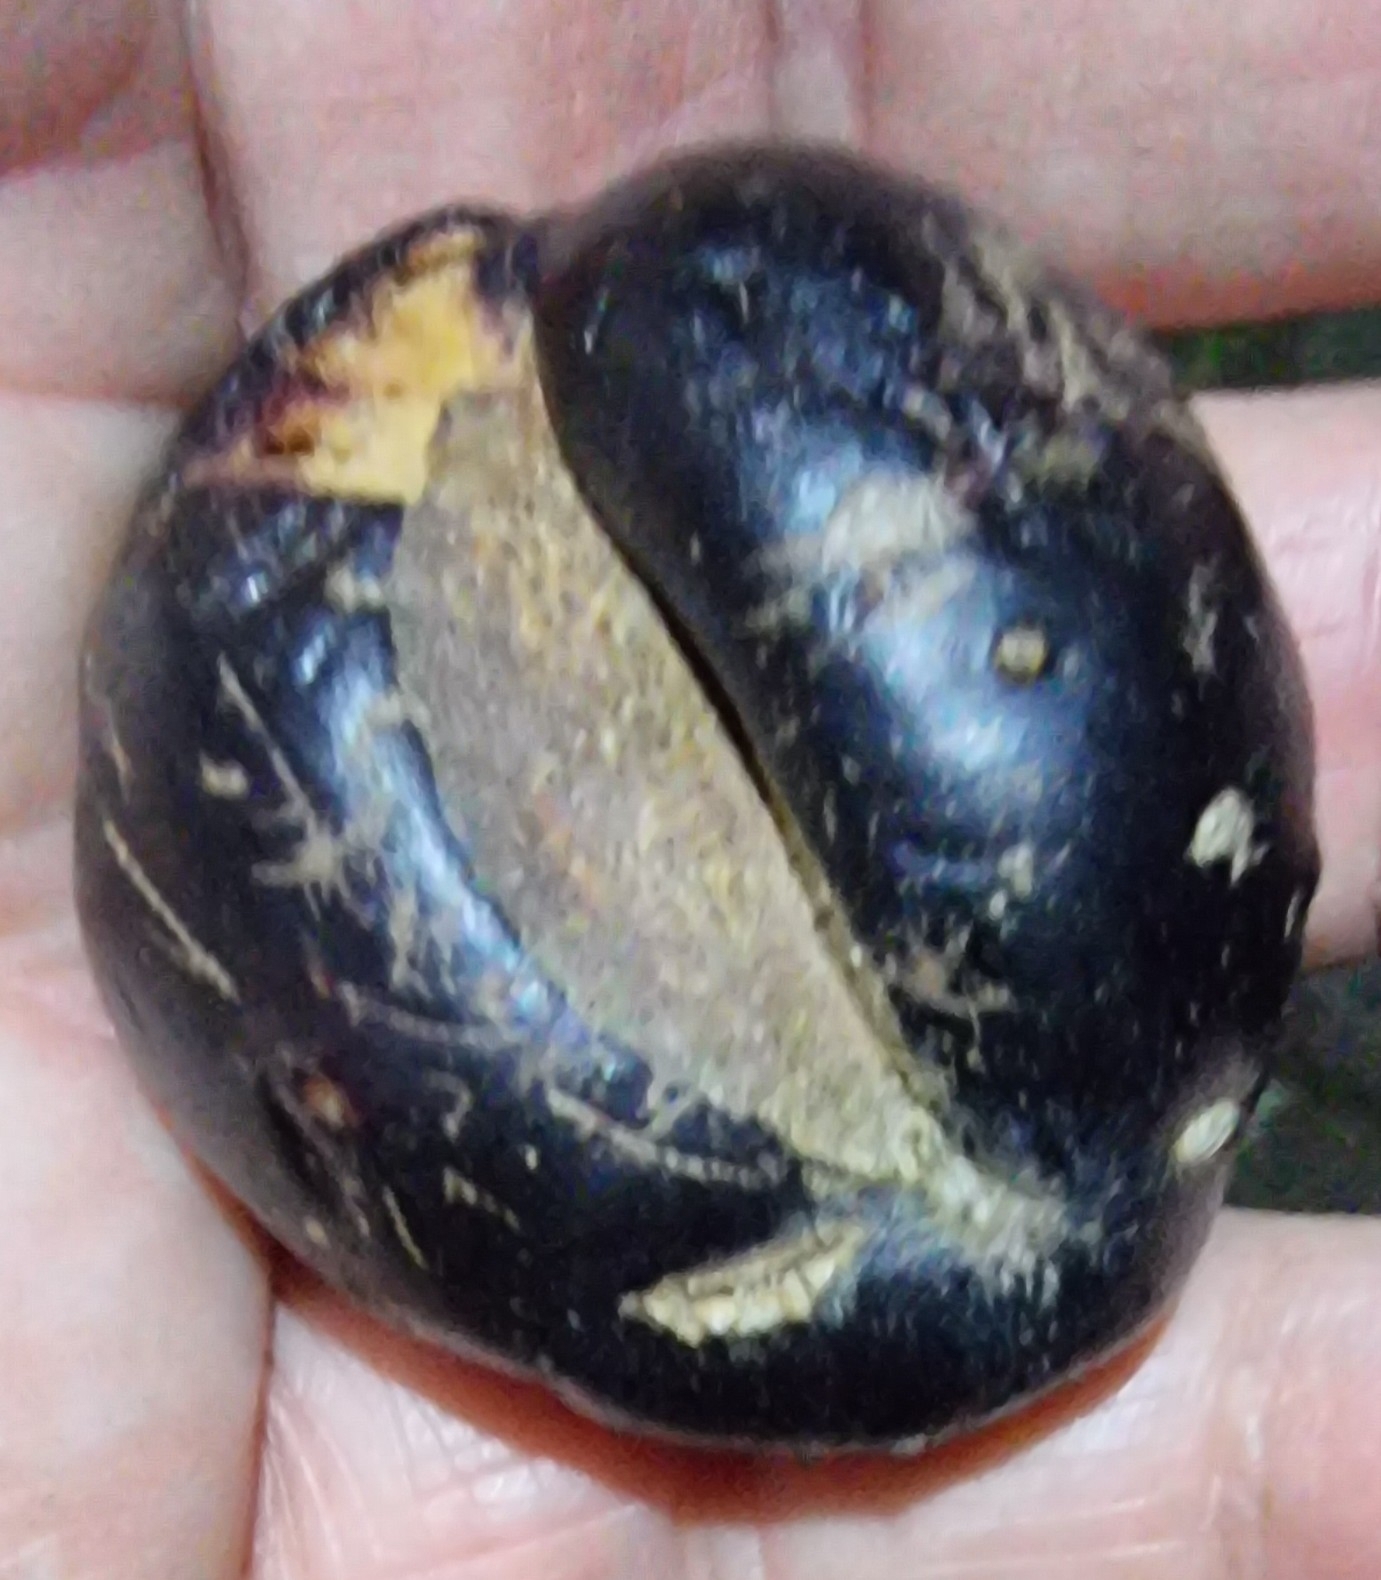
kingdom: Plantae
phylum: Tracheophyta
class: Magnoliopsida
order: Ericales
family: Sapotaceae
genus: Planchonella
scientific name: Planchonella australis
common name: Black apple
